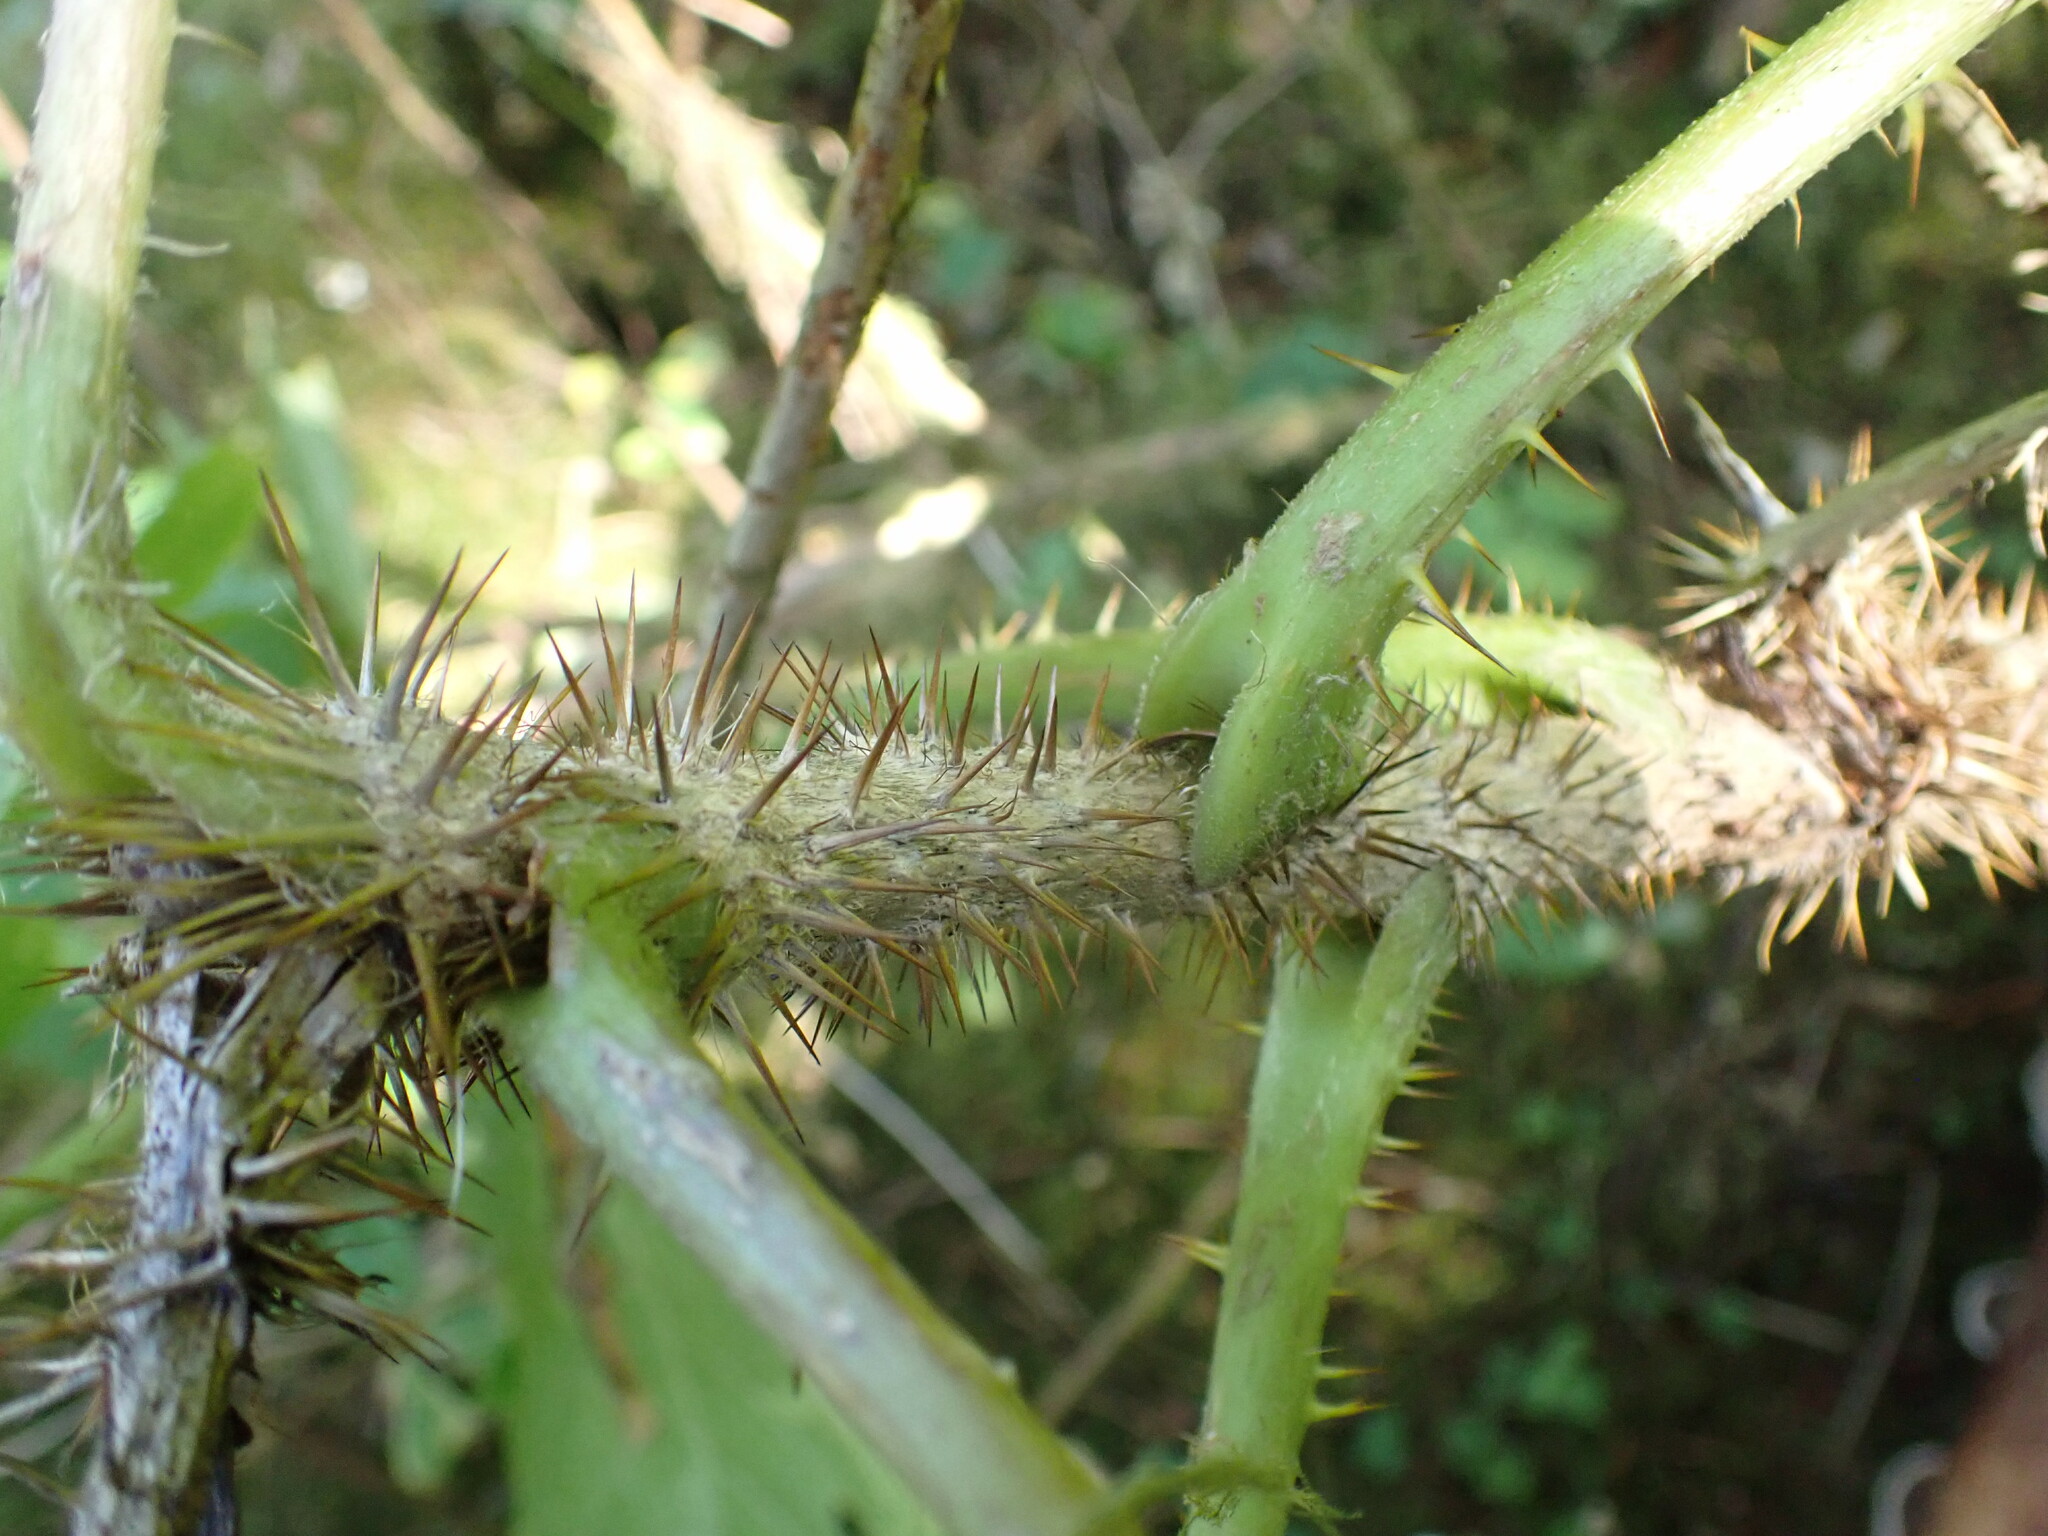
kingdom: Plantae
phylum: Tracheophyta
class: Magnoliopsida
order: Apiales
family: Araliaceae
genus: Oplopanax
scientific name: Oplopanax horridus
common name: Devil's walking-stick
